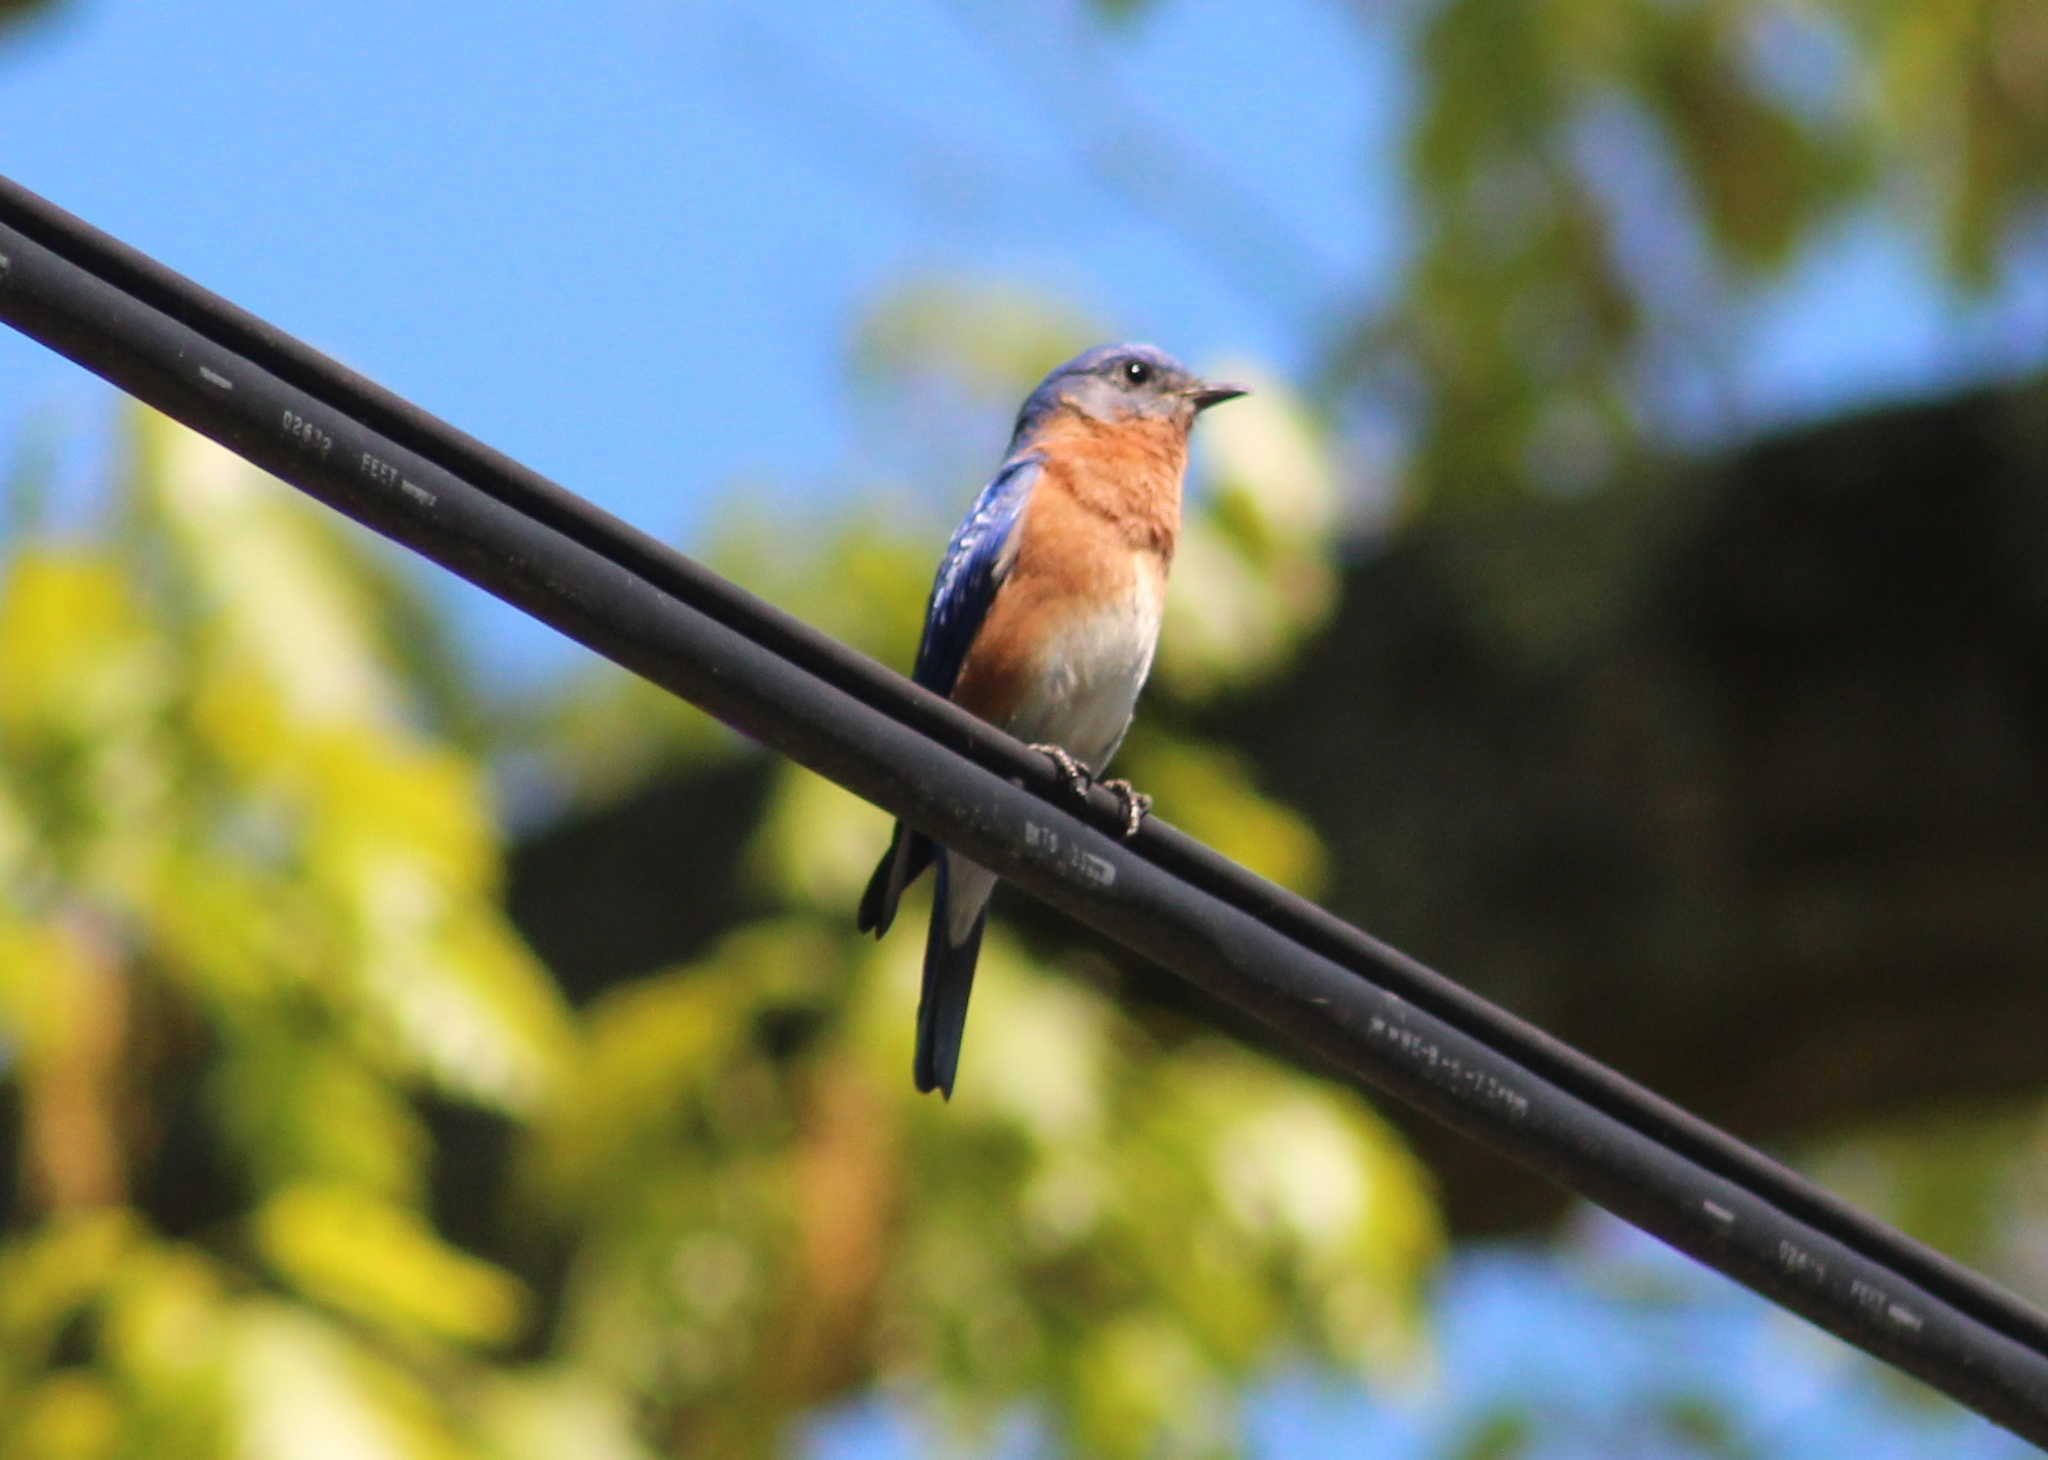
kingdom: Animalia
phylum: Chordata
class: Aves
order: Passeriformes
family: Turdidae
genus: Sialia
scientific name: Sialia sialis
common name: Eastern bluebird
